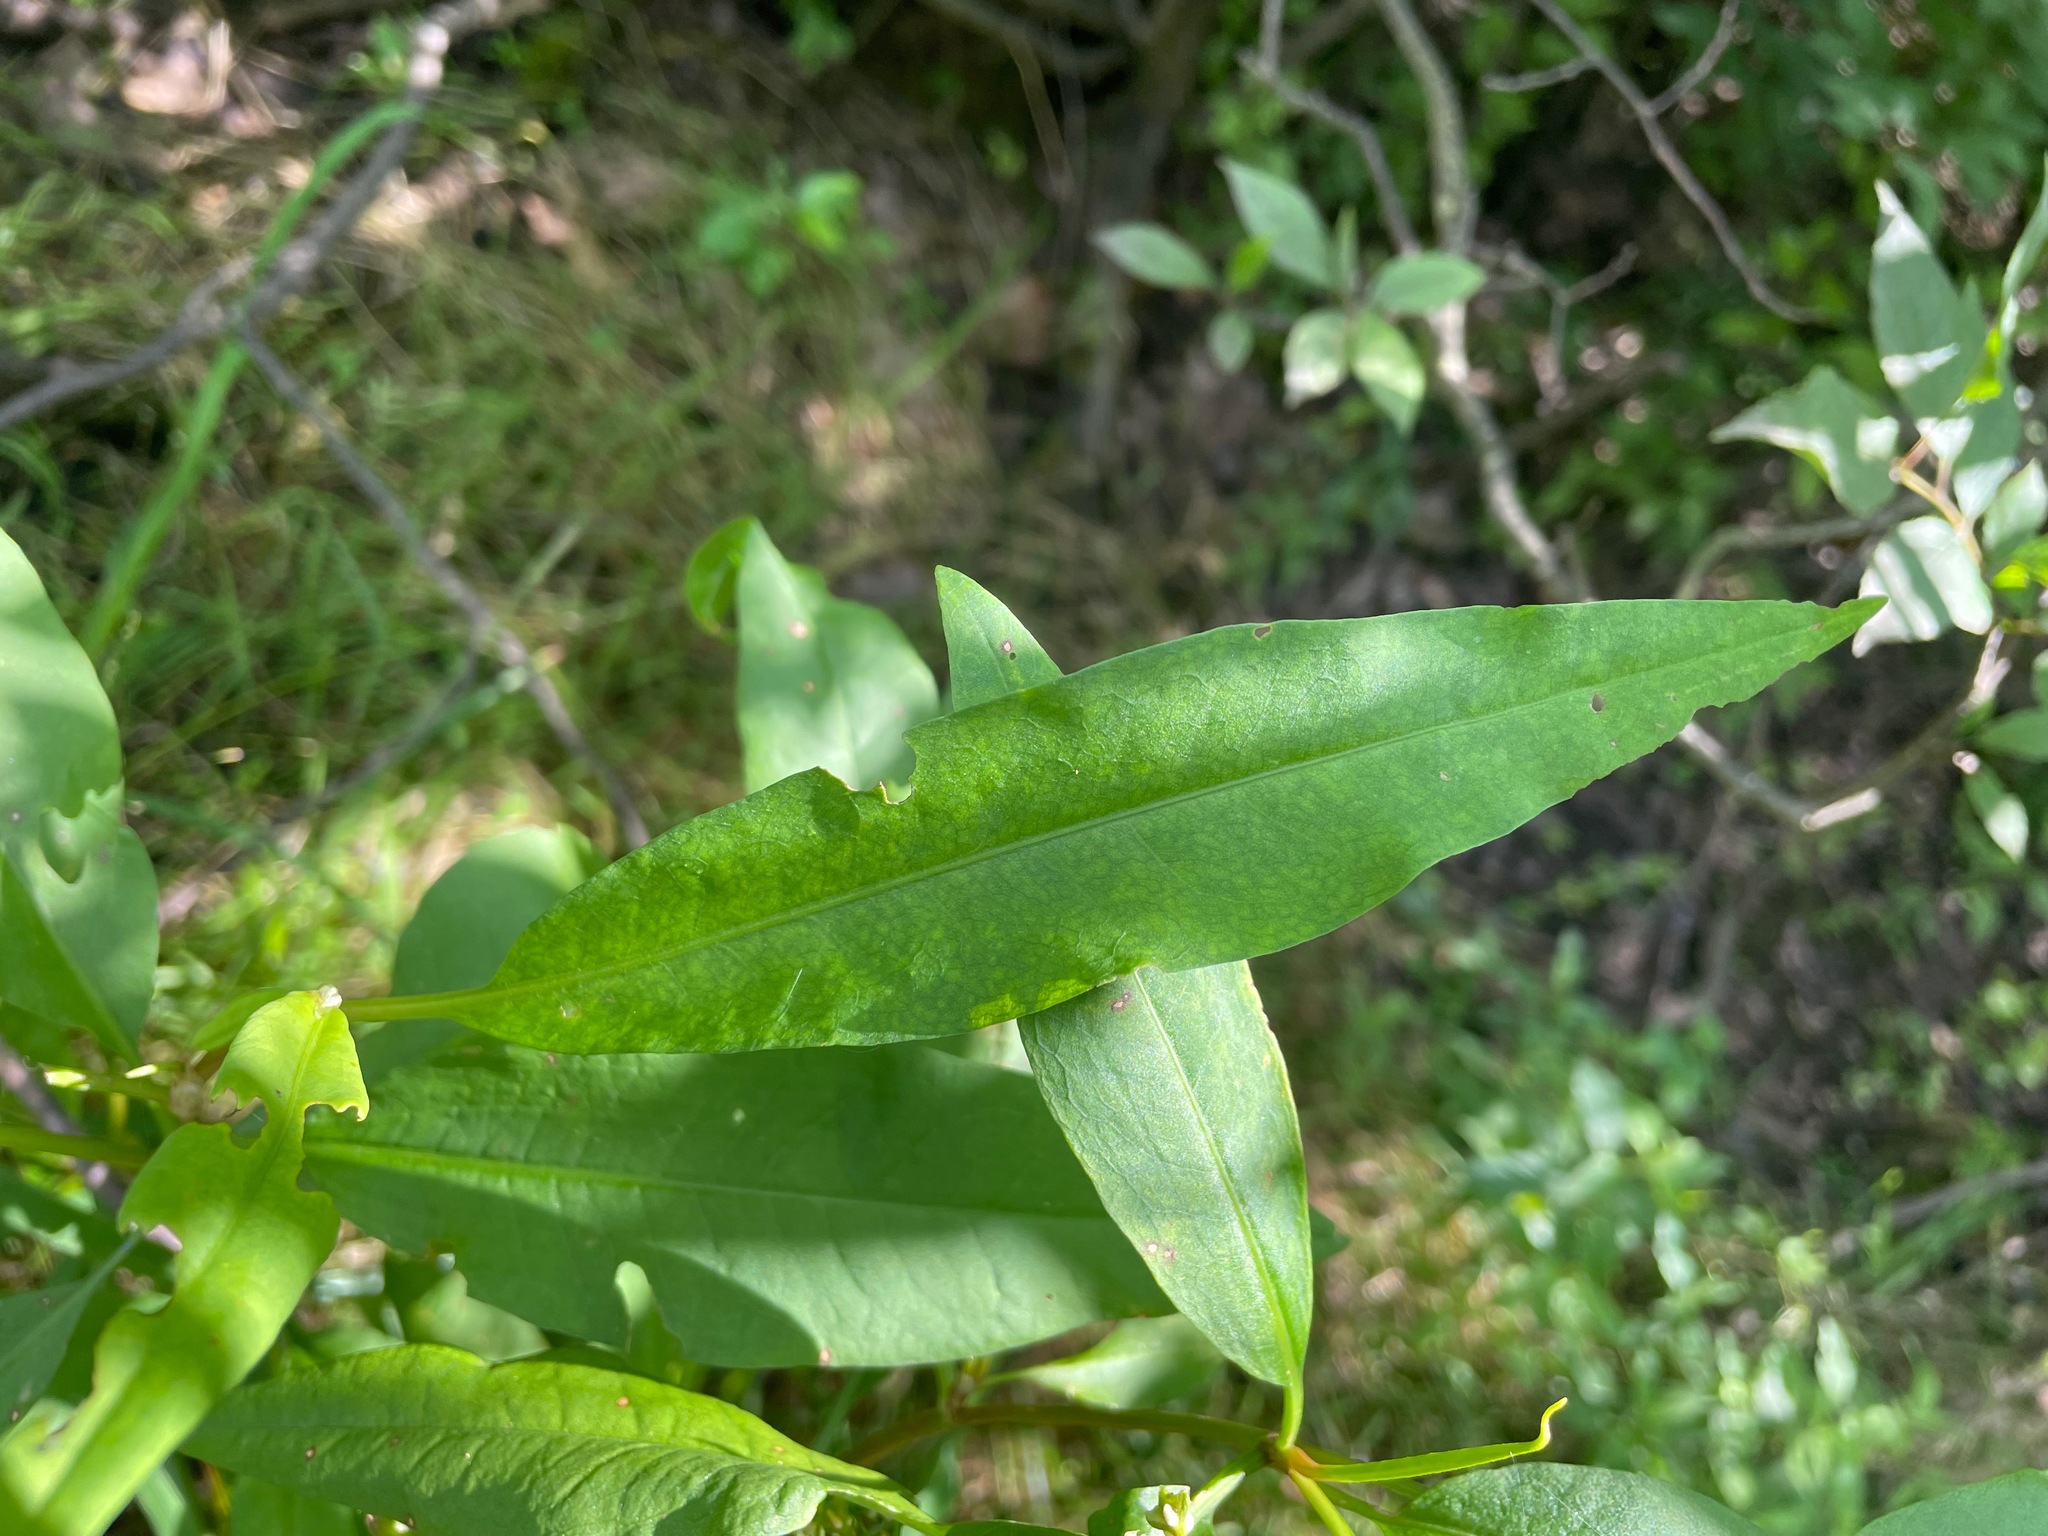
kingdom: Plantae
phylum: Tracheophyta
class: Magnoliopsida
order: Caryophyllales
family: Polygonaceae
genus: Rumex
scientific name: Rumex verticillatus
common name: Swamp dock
